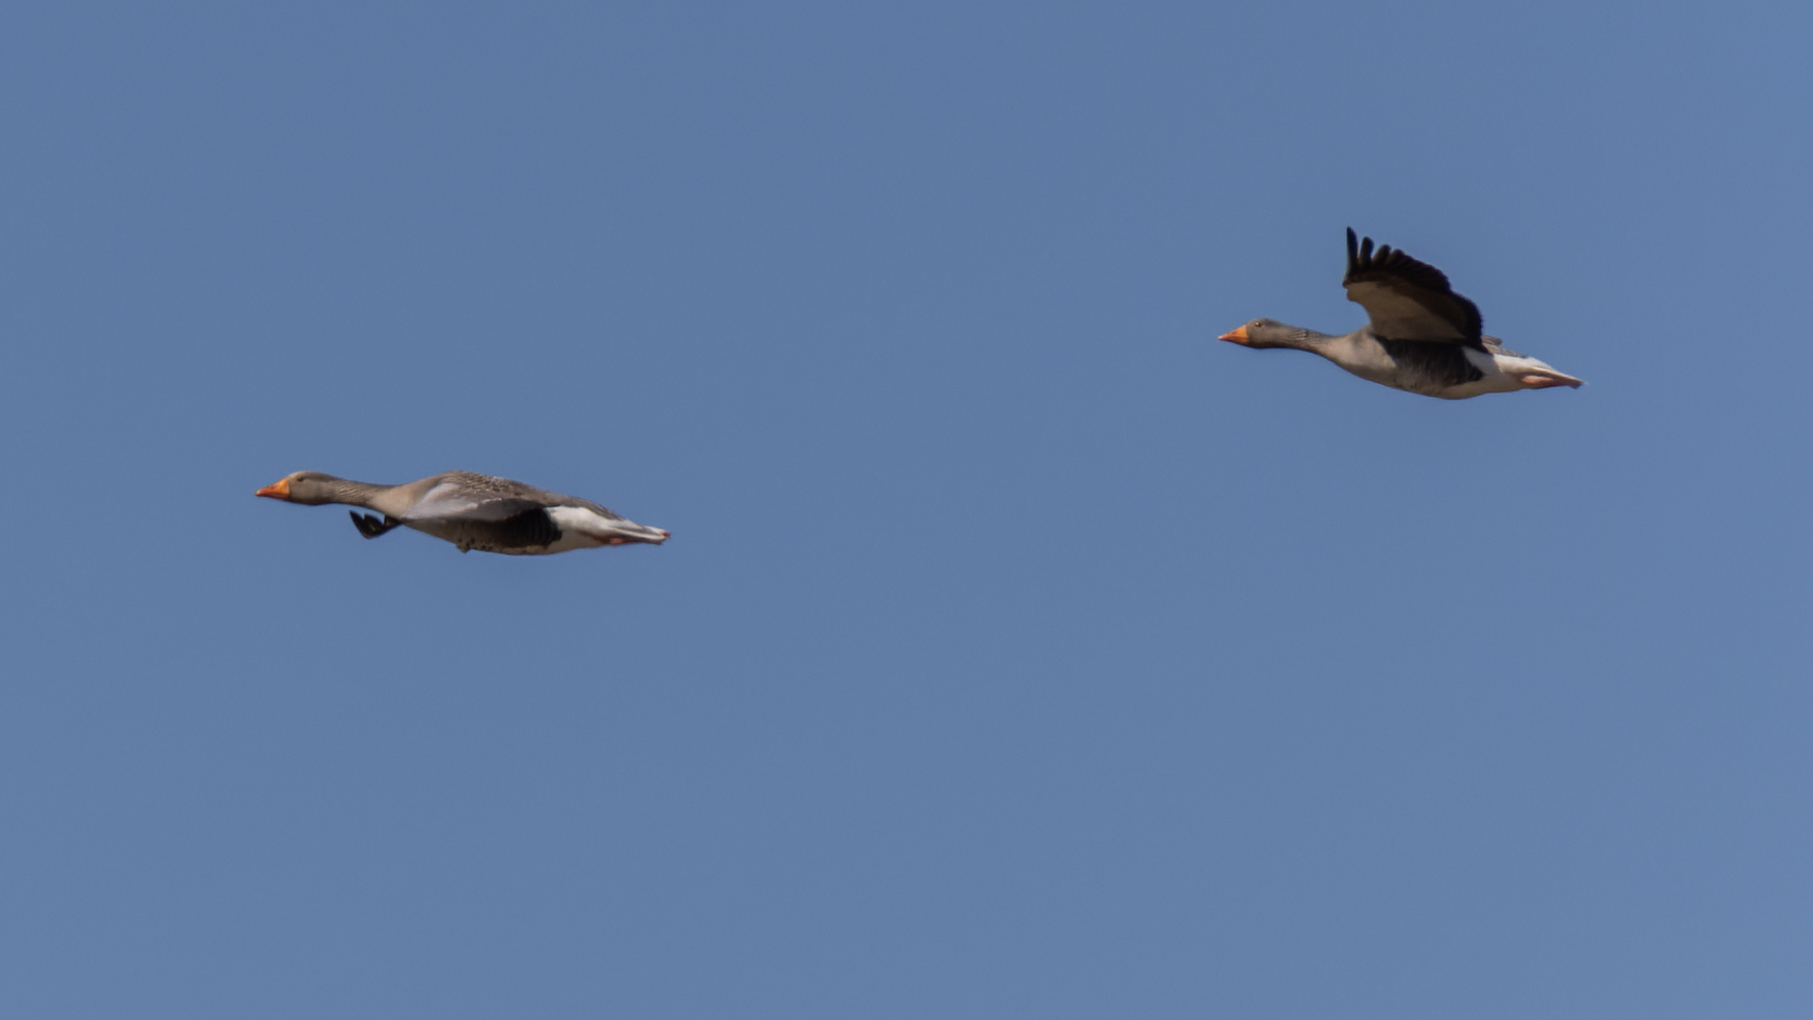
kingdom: Animalia
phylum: Chordata
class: Aves
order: Anseriformes
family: Anatidae
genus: Anser
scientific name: Anser anser
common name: Greylag goose
